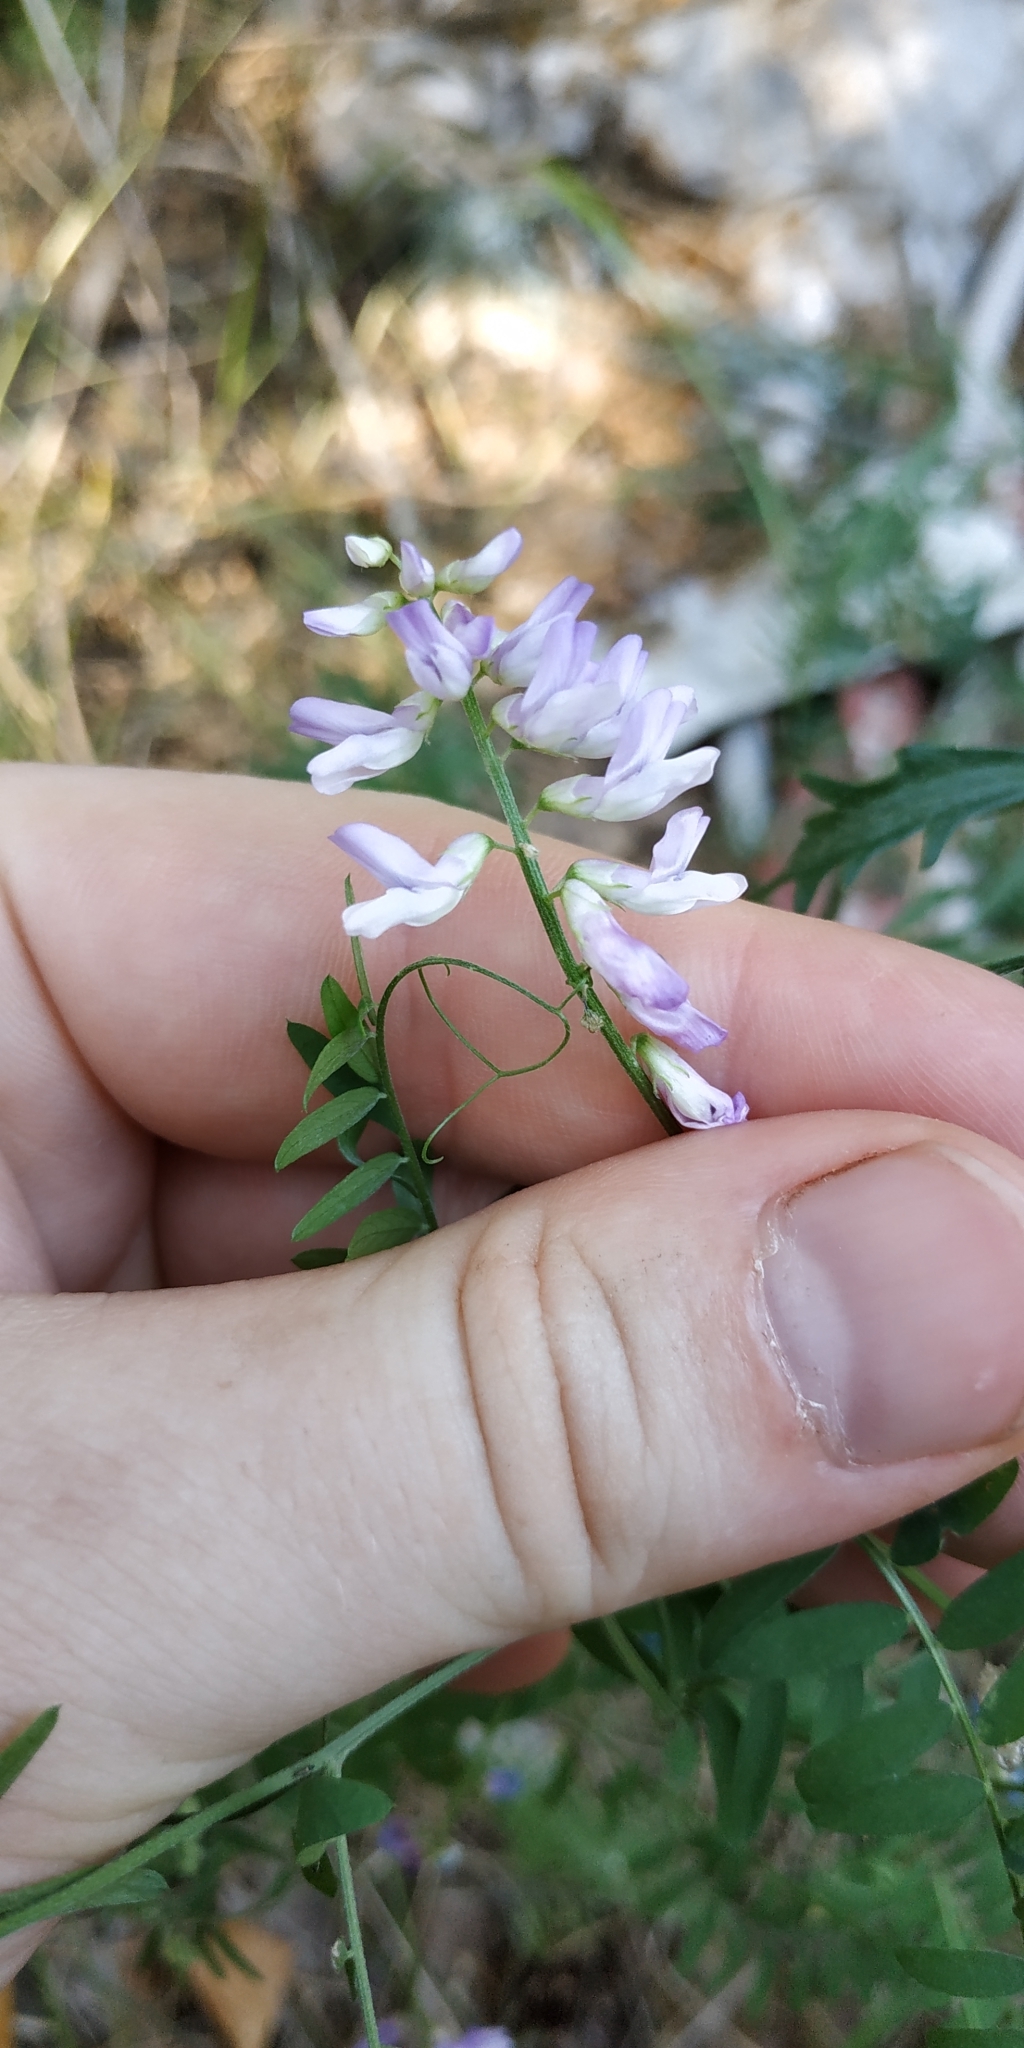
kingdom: Plantae
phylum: Tracheophyta
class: Magnoliopsida
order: Fabales
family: Fabaceae
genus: Vicia
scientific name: Vicia sylvatica
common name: Wood vetch
